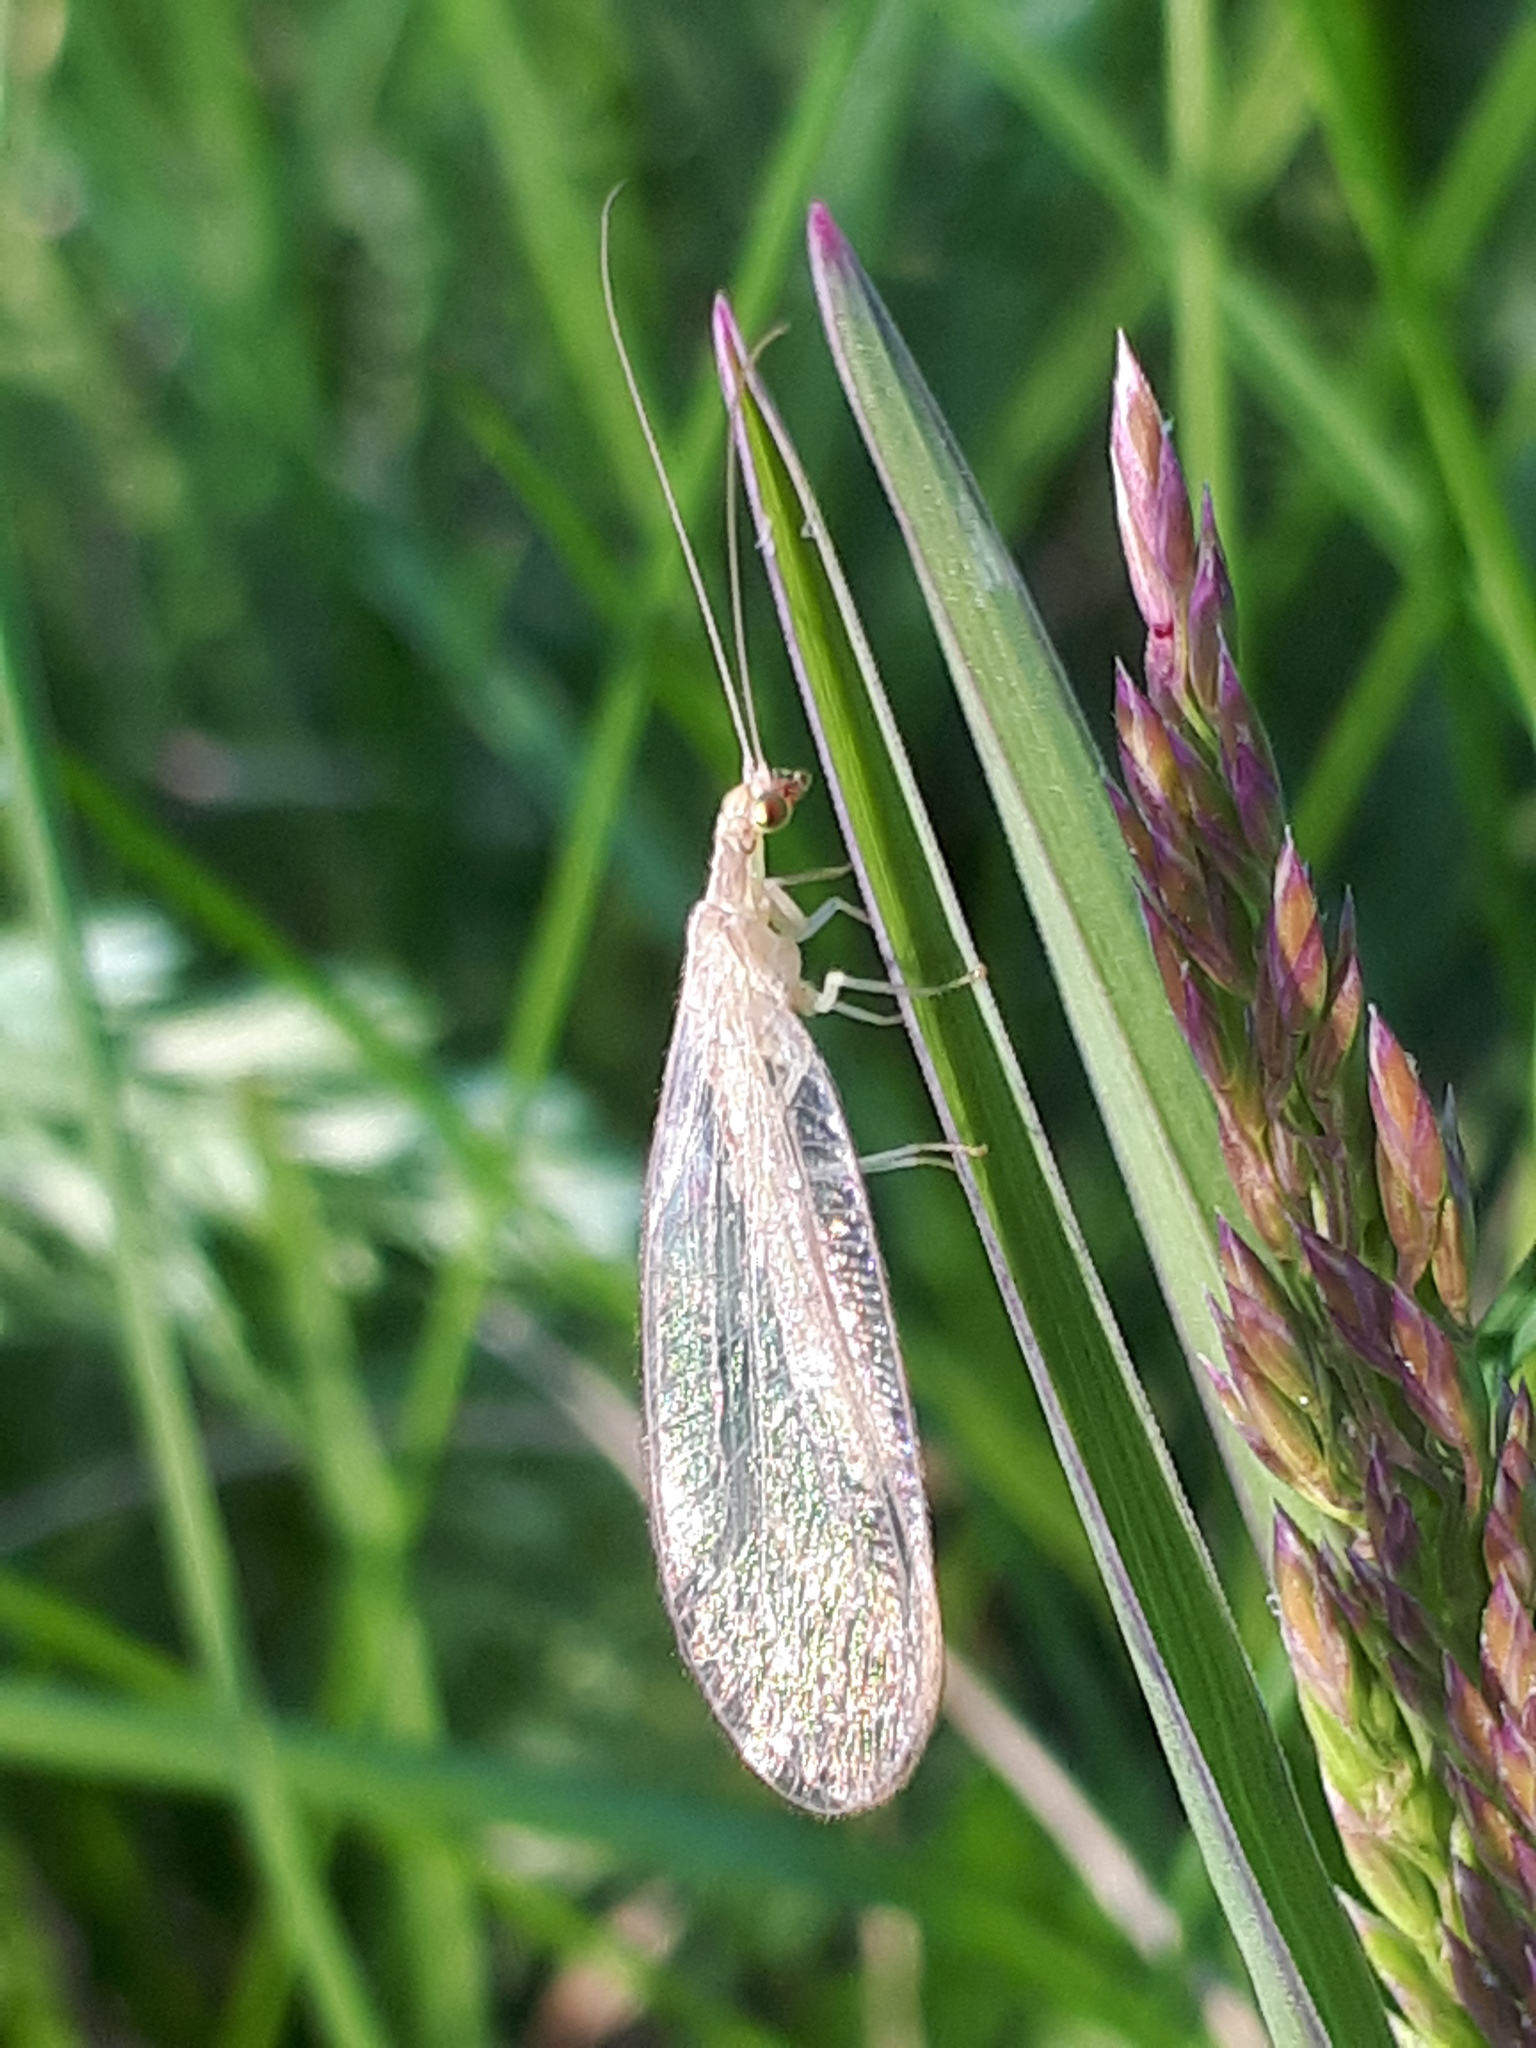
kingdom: Animalia
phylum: Arthropoda
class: Insecta
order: Neuroptera
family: Chrysopidae
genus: Chrysoperla
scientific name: Chrysoperla
